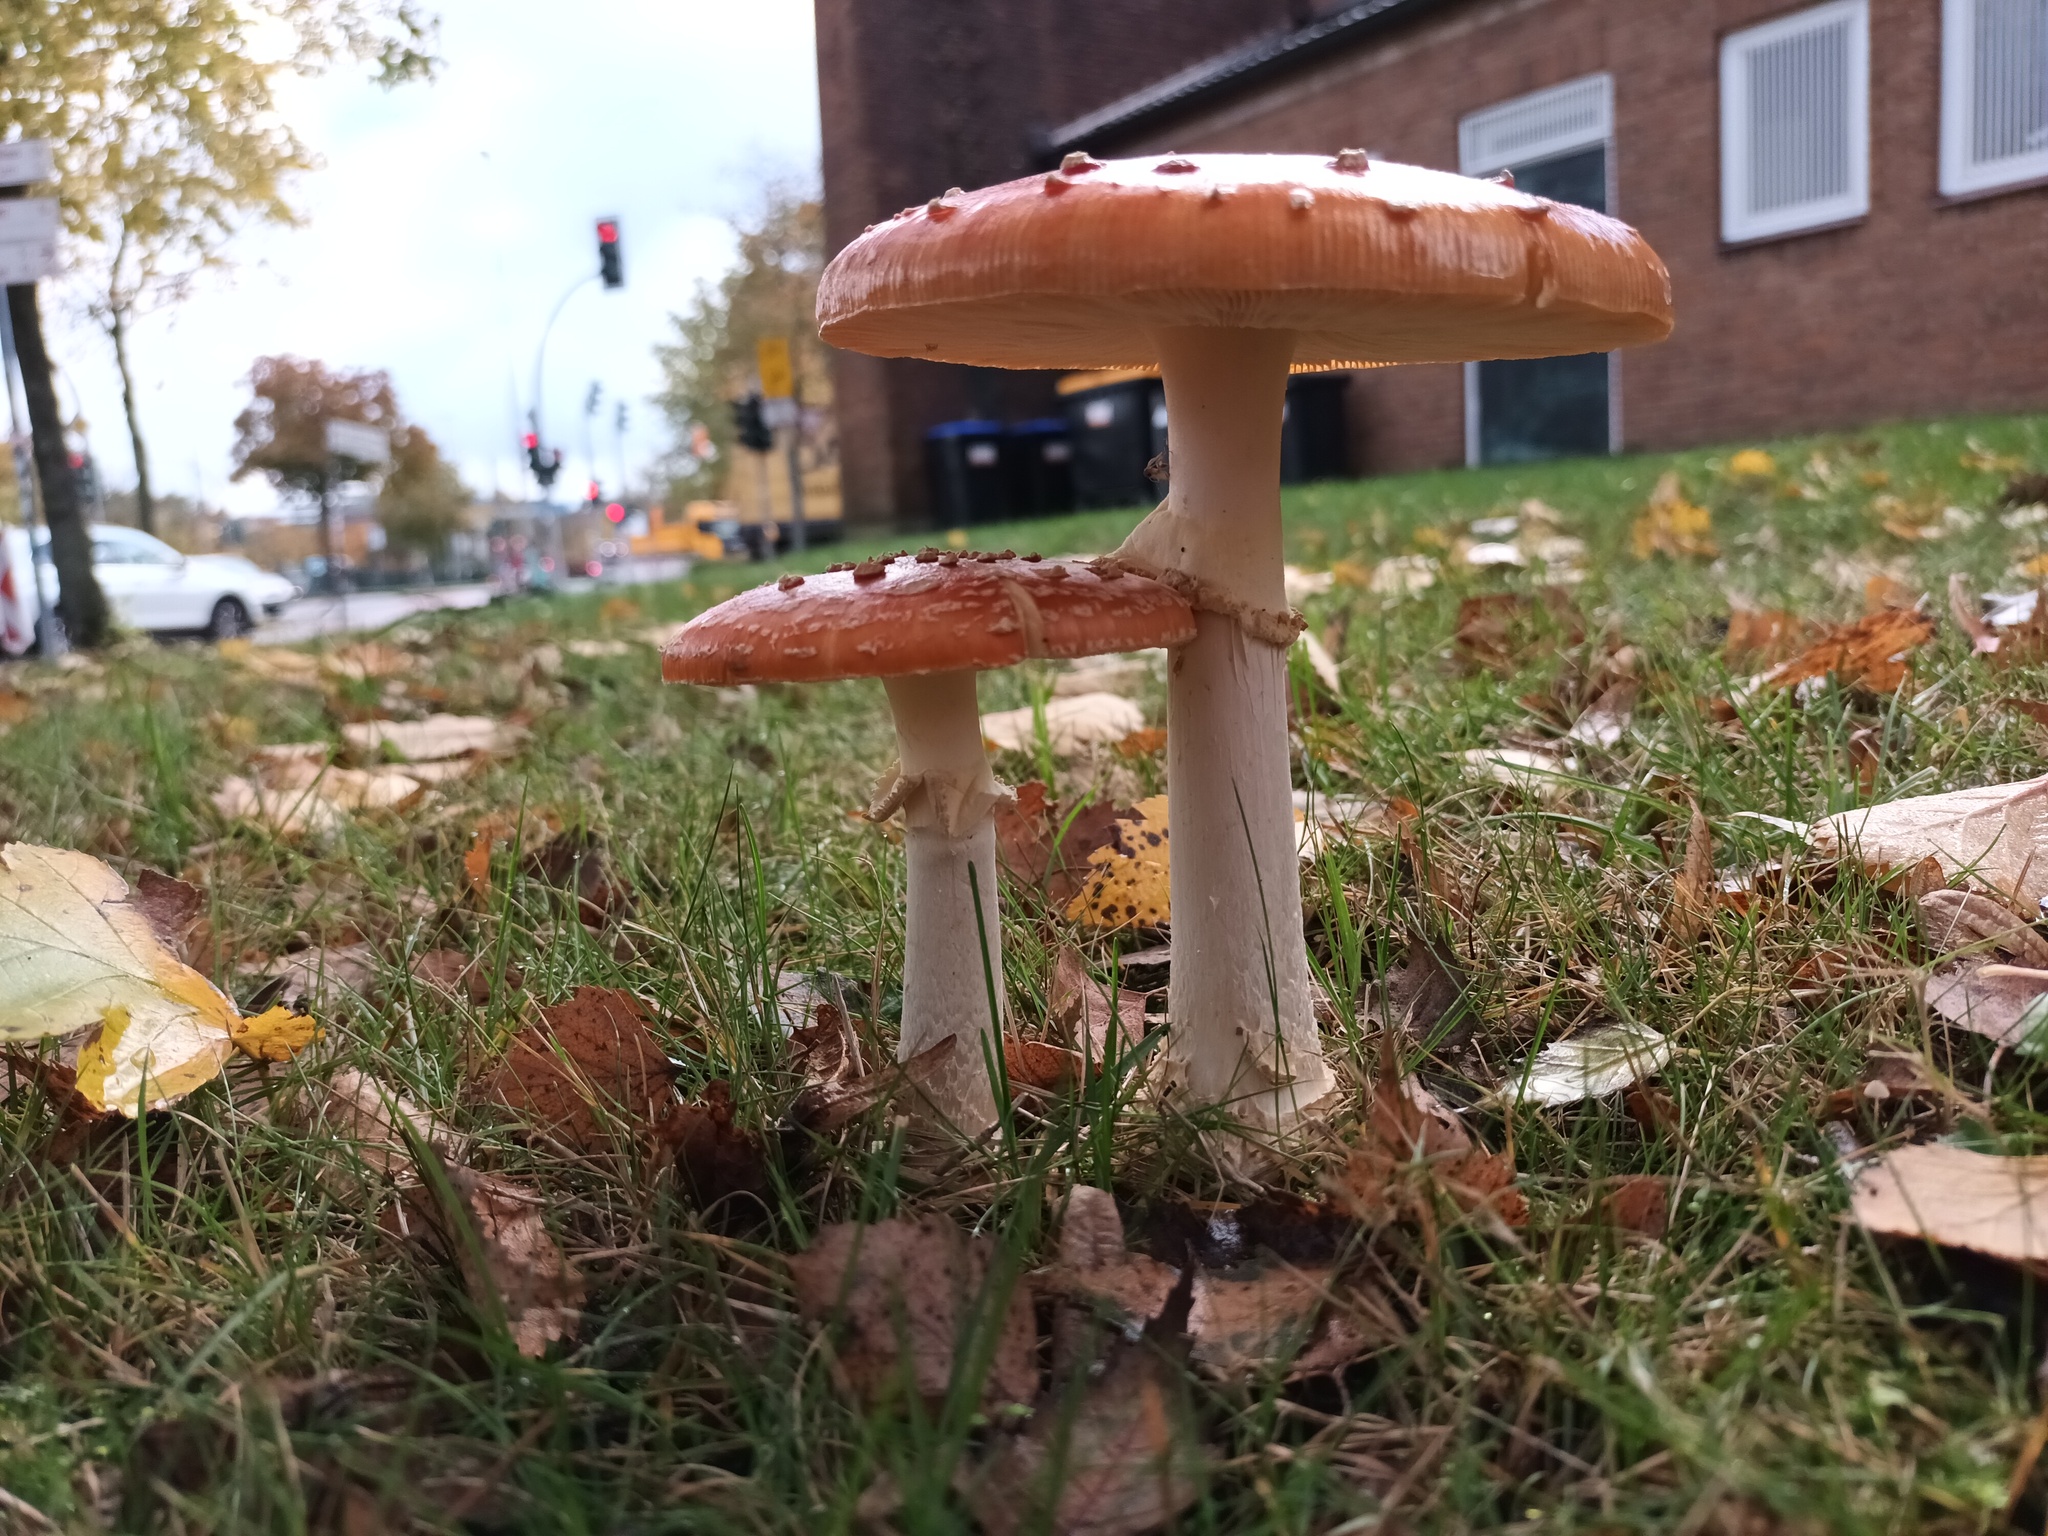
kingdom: Fungi
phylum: Basidiomycota
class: Agaricomycetes
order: Agaricales
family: Amanitaceae
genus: Amanita
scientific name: Amanita muscaria
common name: Fly agaric
